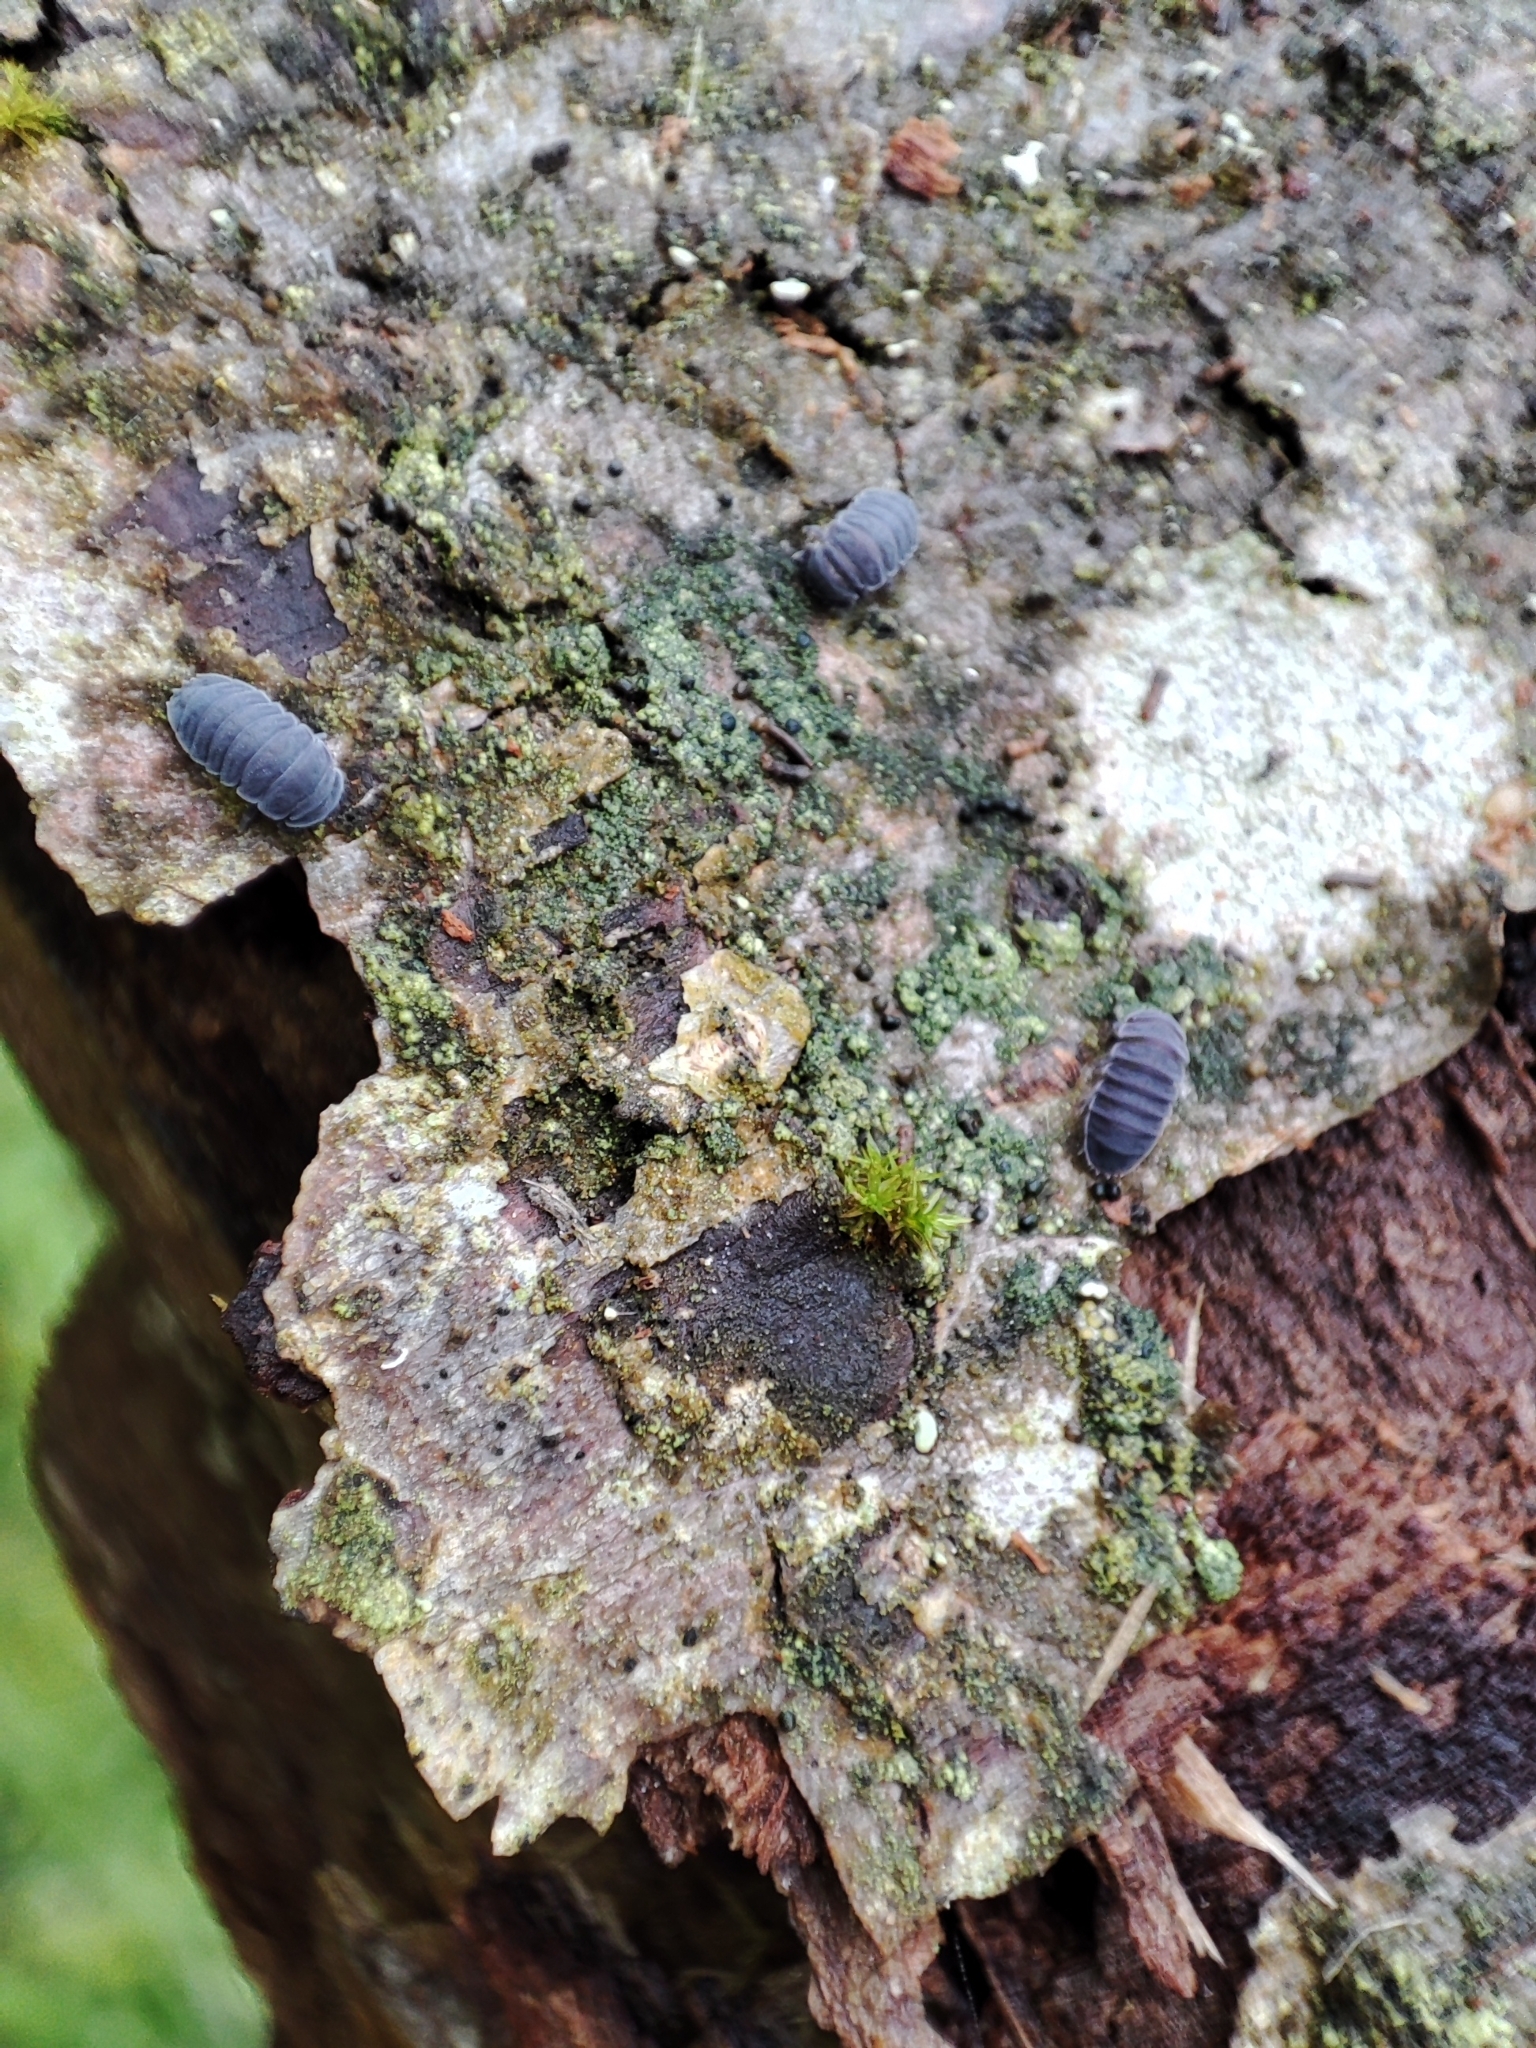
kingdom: Animalia
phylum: Arthropoda
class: Collembola
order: Poduromorpha
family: Onychiuridae
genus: Tetrodontophora
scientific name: Tetrodontophora bielanensis
